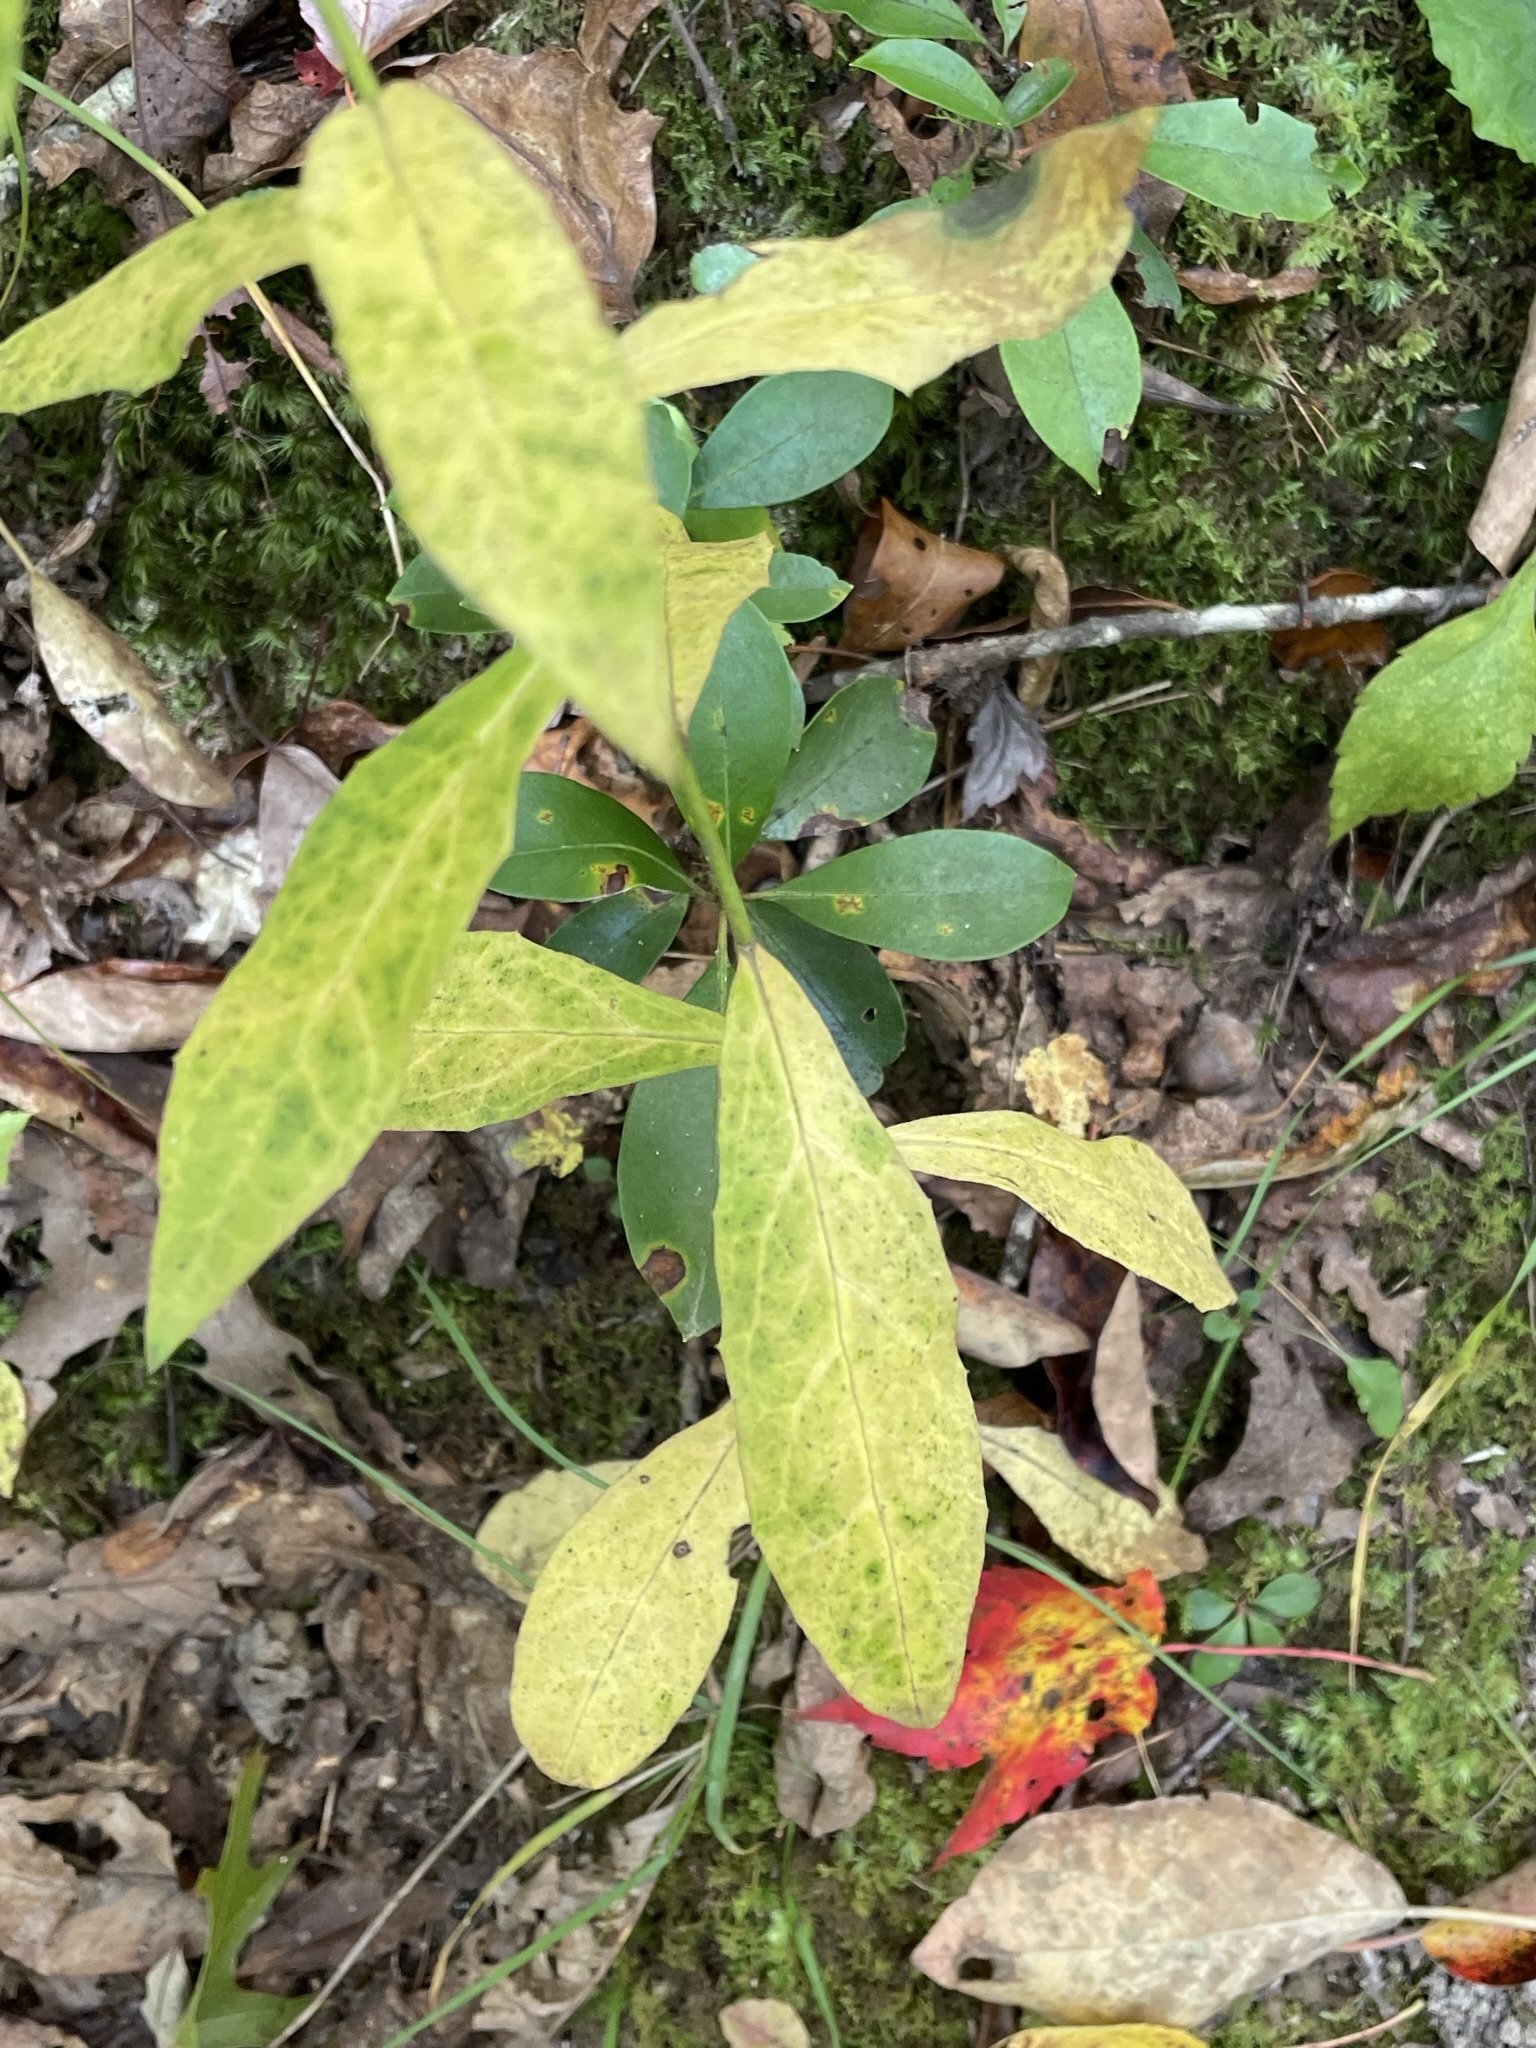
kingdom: Plantae
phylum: Tracheophyta
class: Magnoliopsida
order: Asterales
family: Asteraceae
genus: Hieracium
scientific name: Hieracium paniculatum
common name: Allegheny hawkweed
